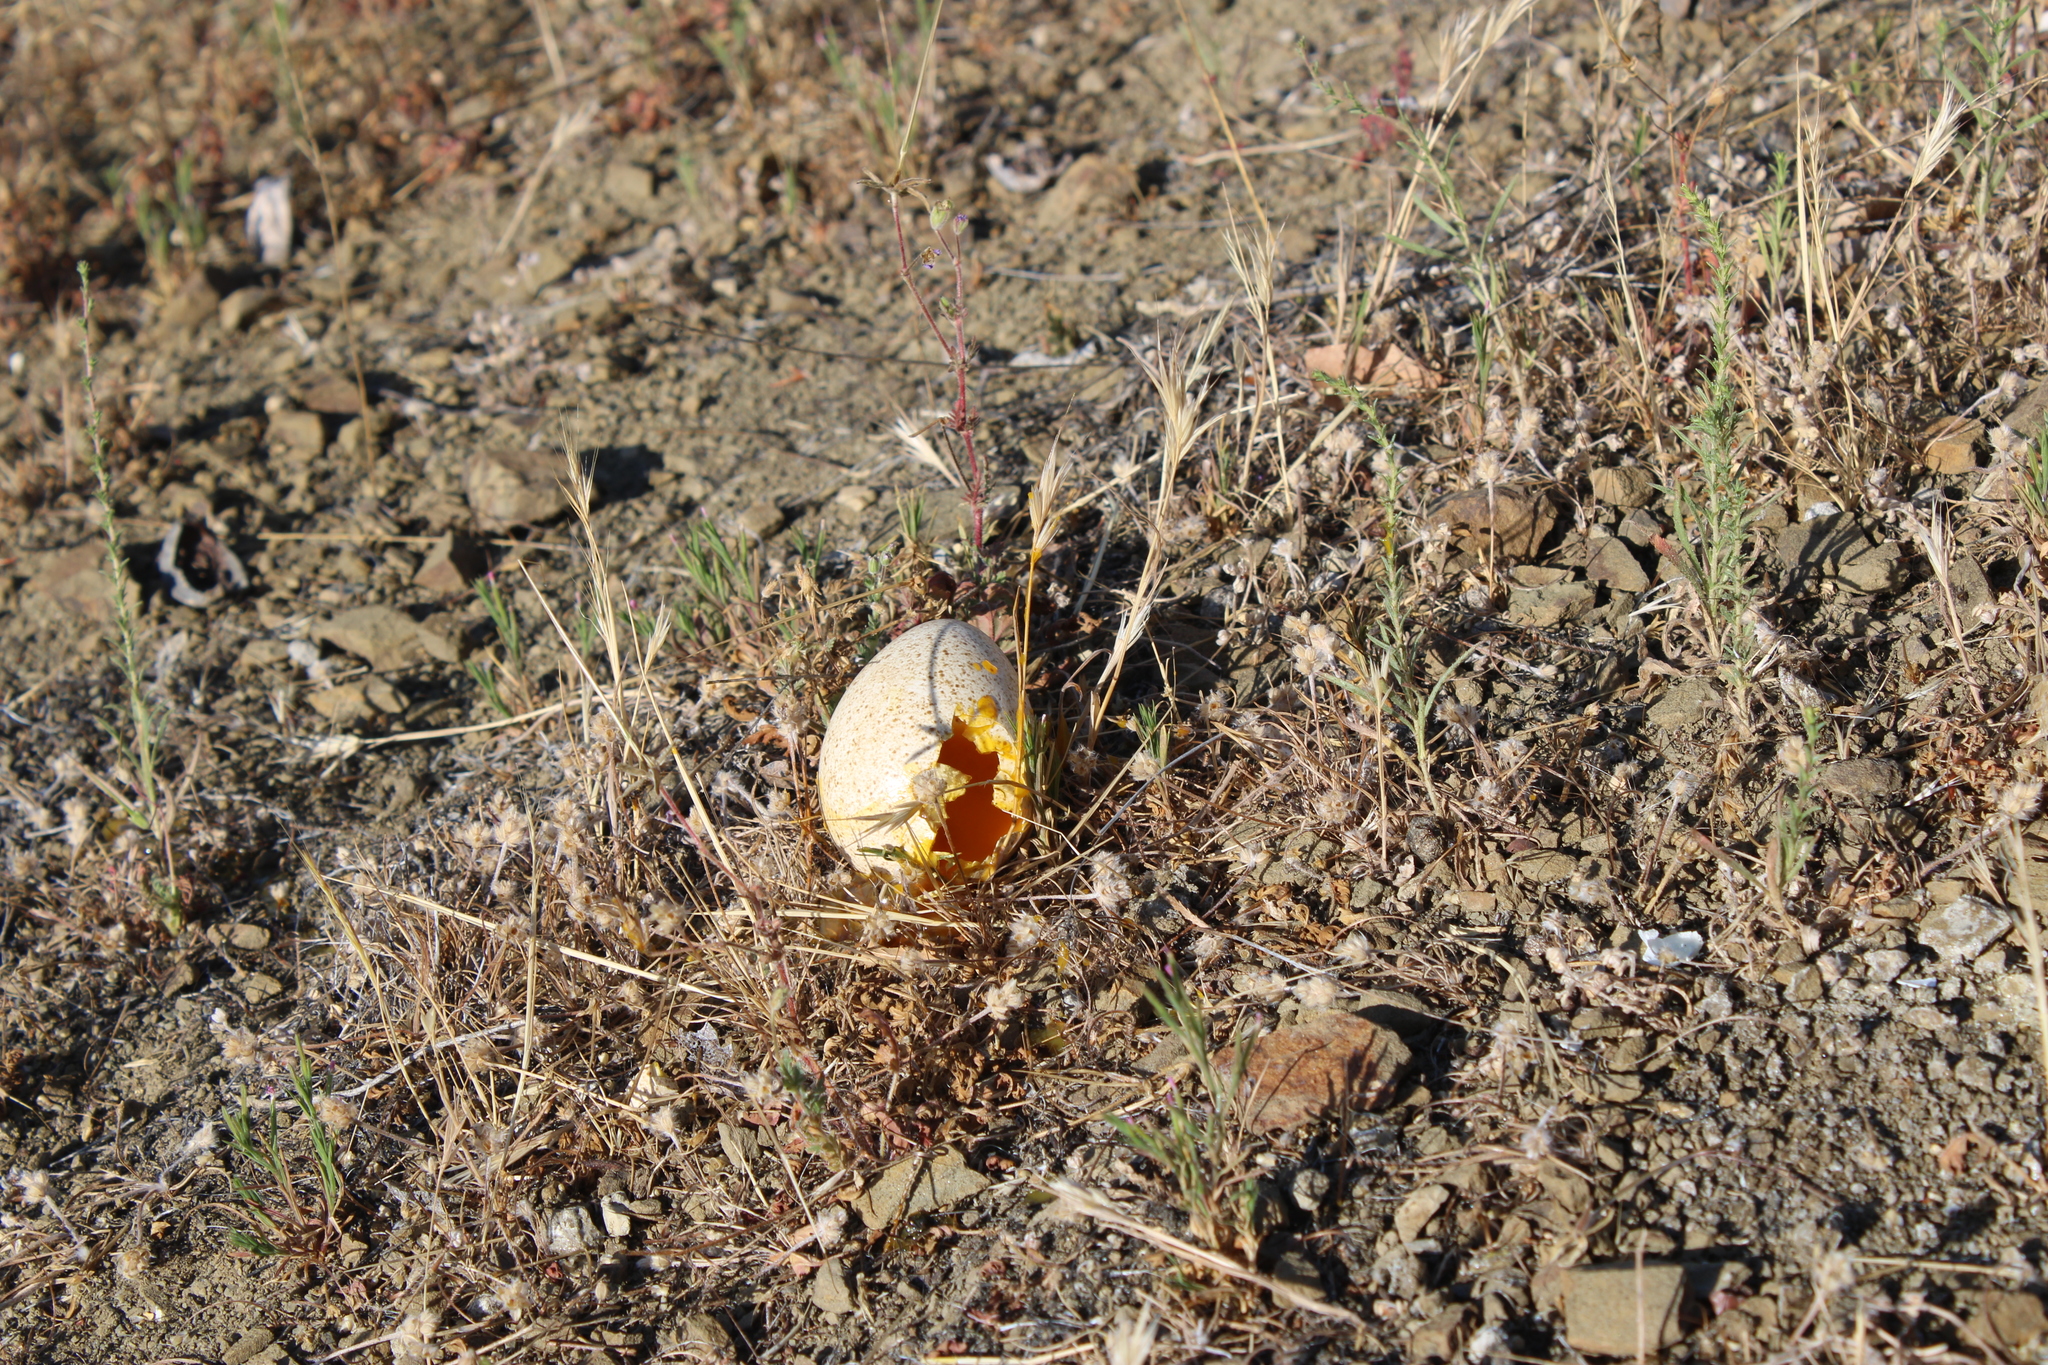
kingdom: Animalia
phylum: Chordata
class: Aves
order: Galliformes
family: Phasianidae
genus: Meleagris
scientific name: Meleagris gallopavo
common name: Wild turkey
